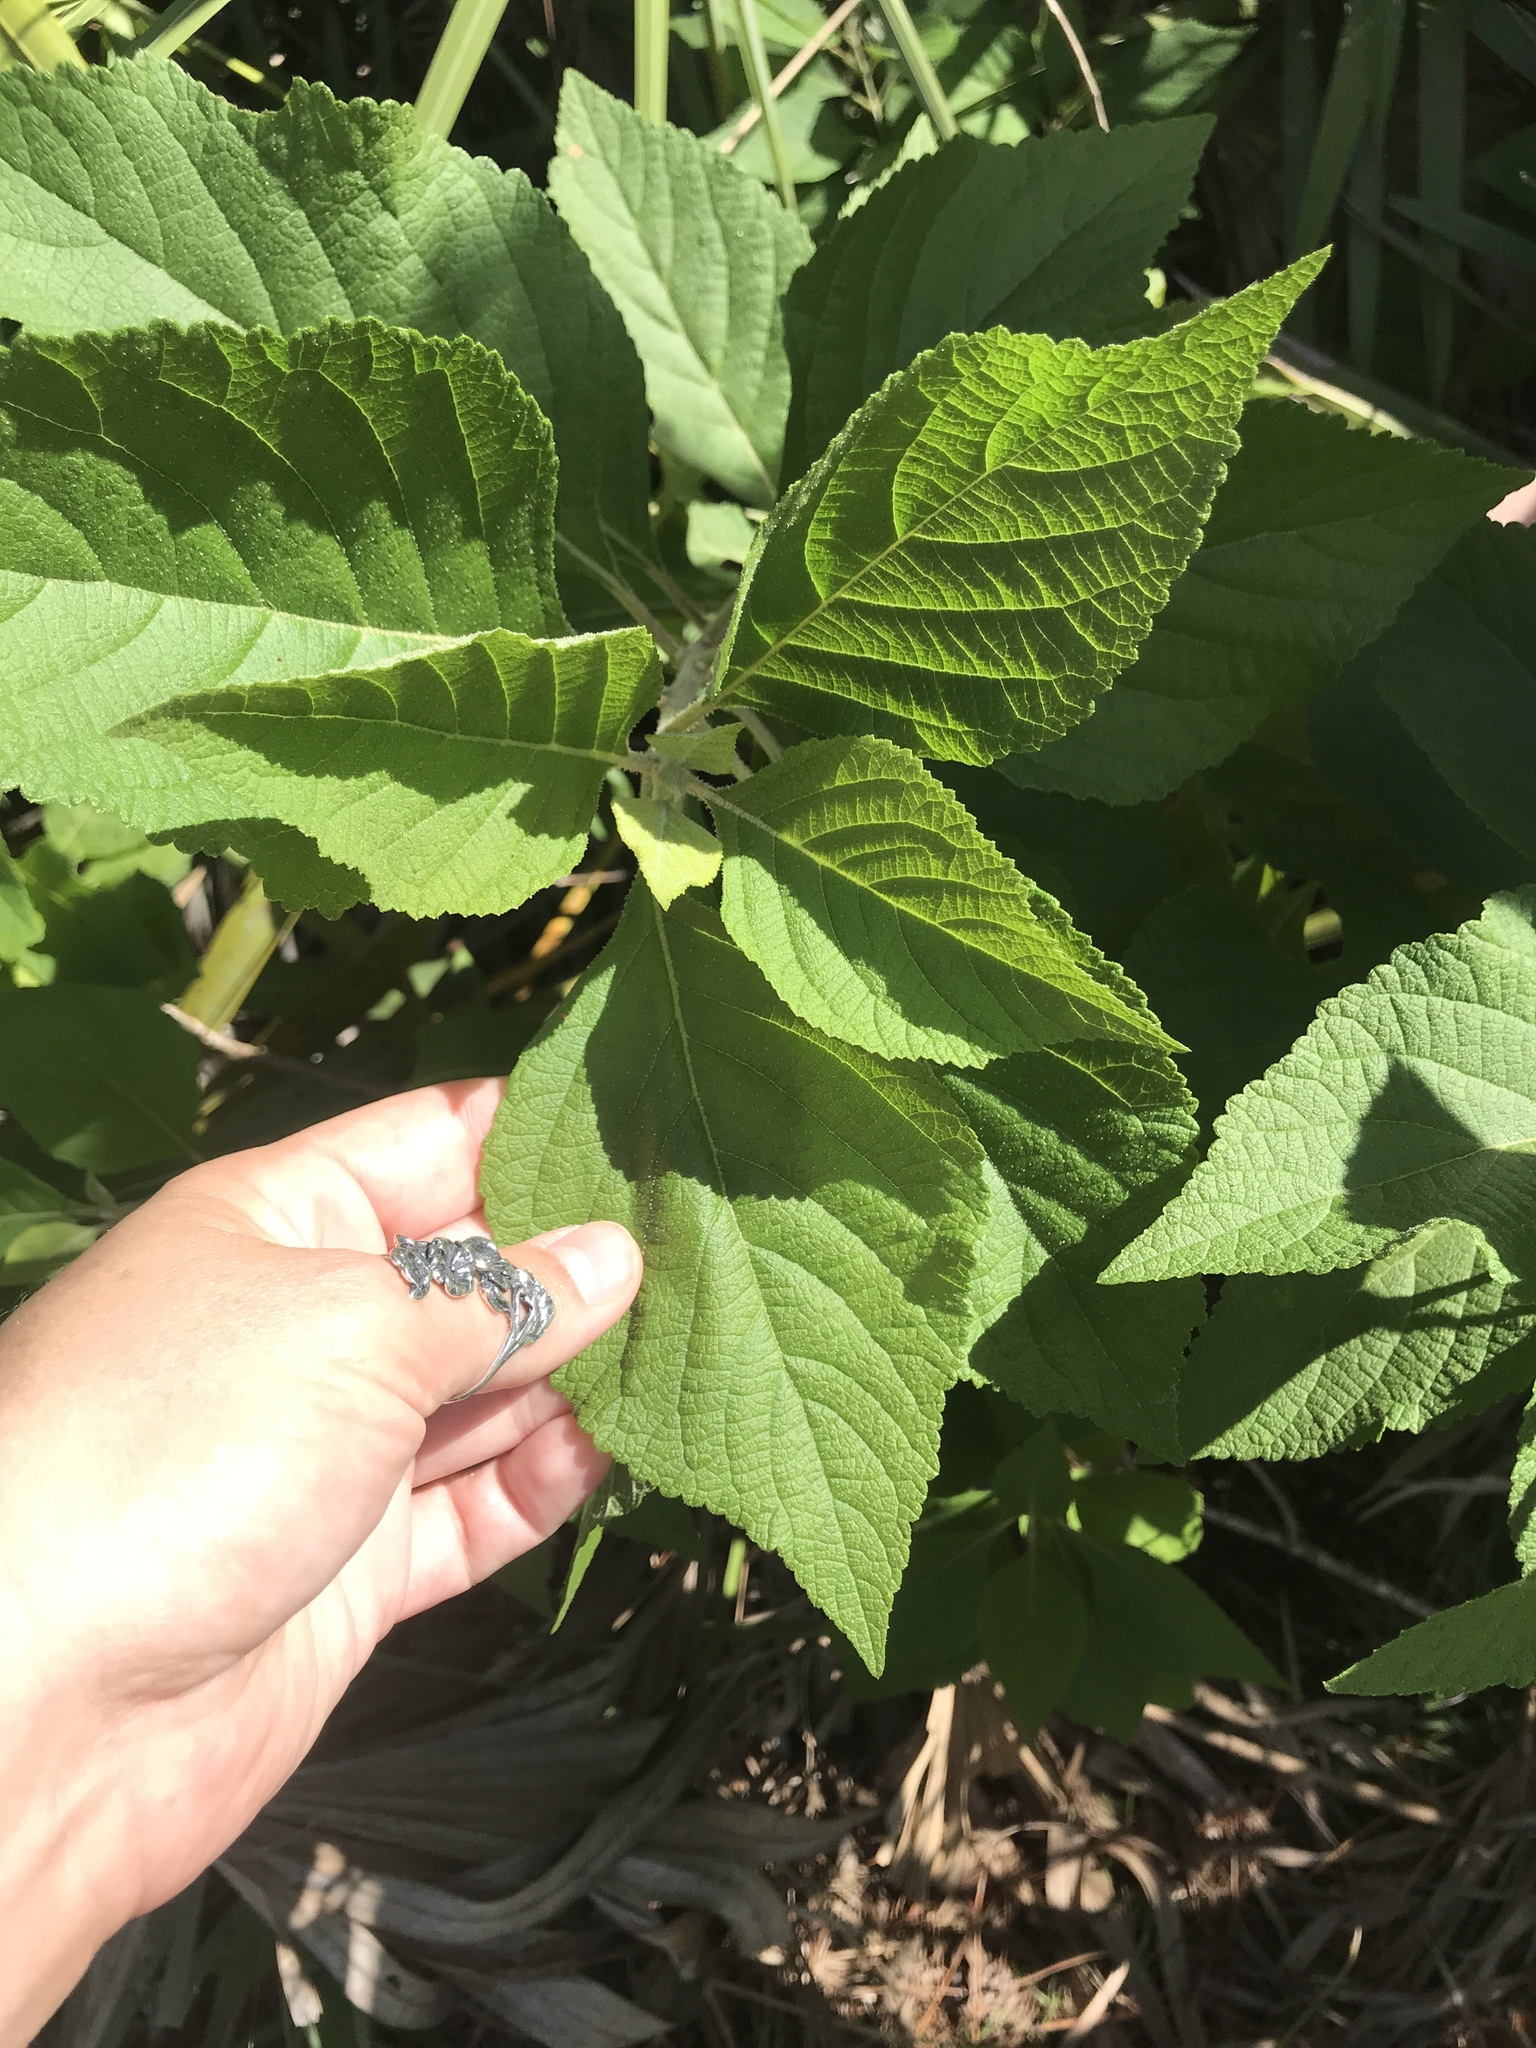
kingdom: Plantae
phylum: Tracheophyta
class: Magnoliopsida
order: Lamiales
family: Lamiaceae
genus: Callicarpa
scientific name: Callicarpa americana
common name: American beautyberry
